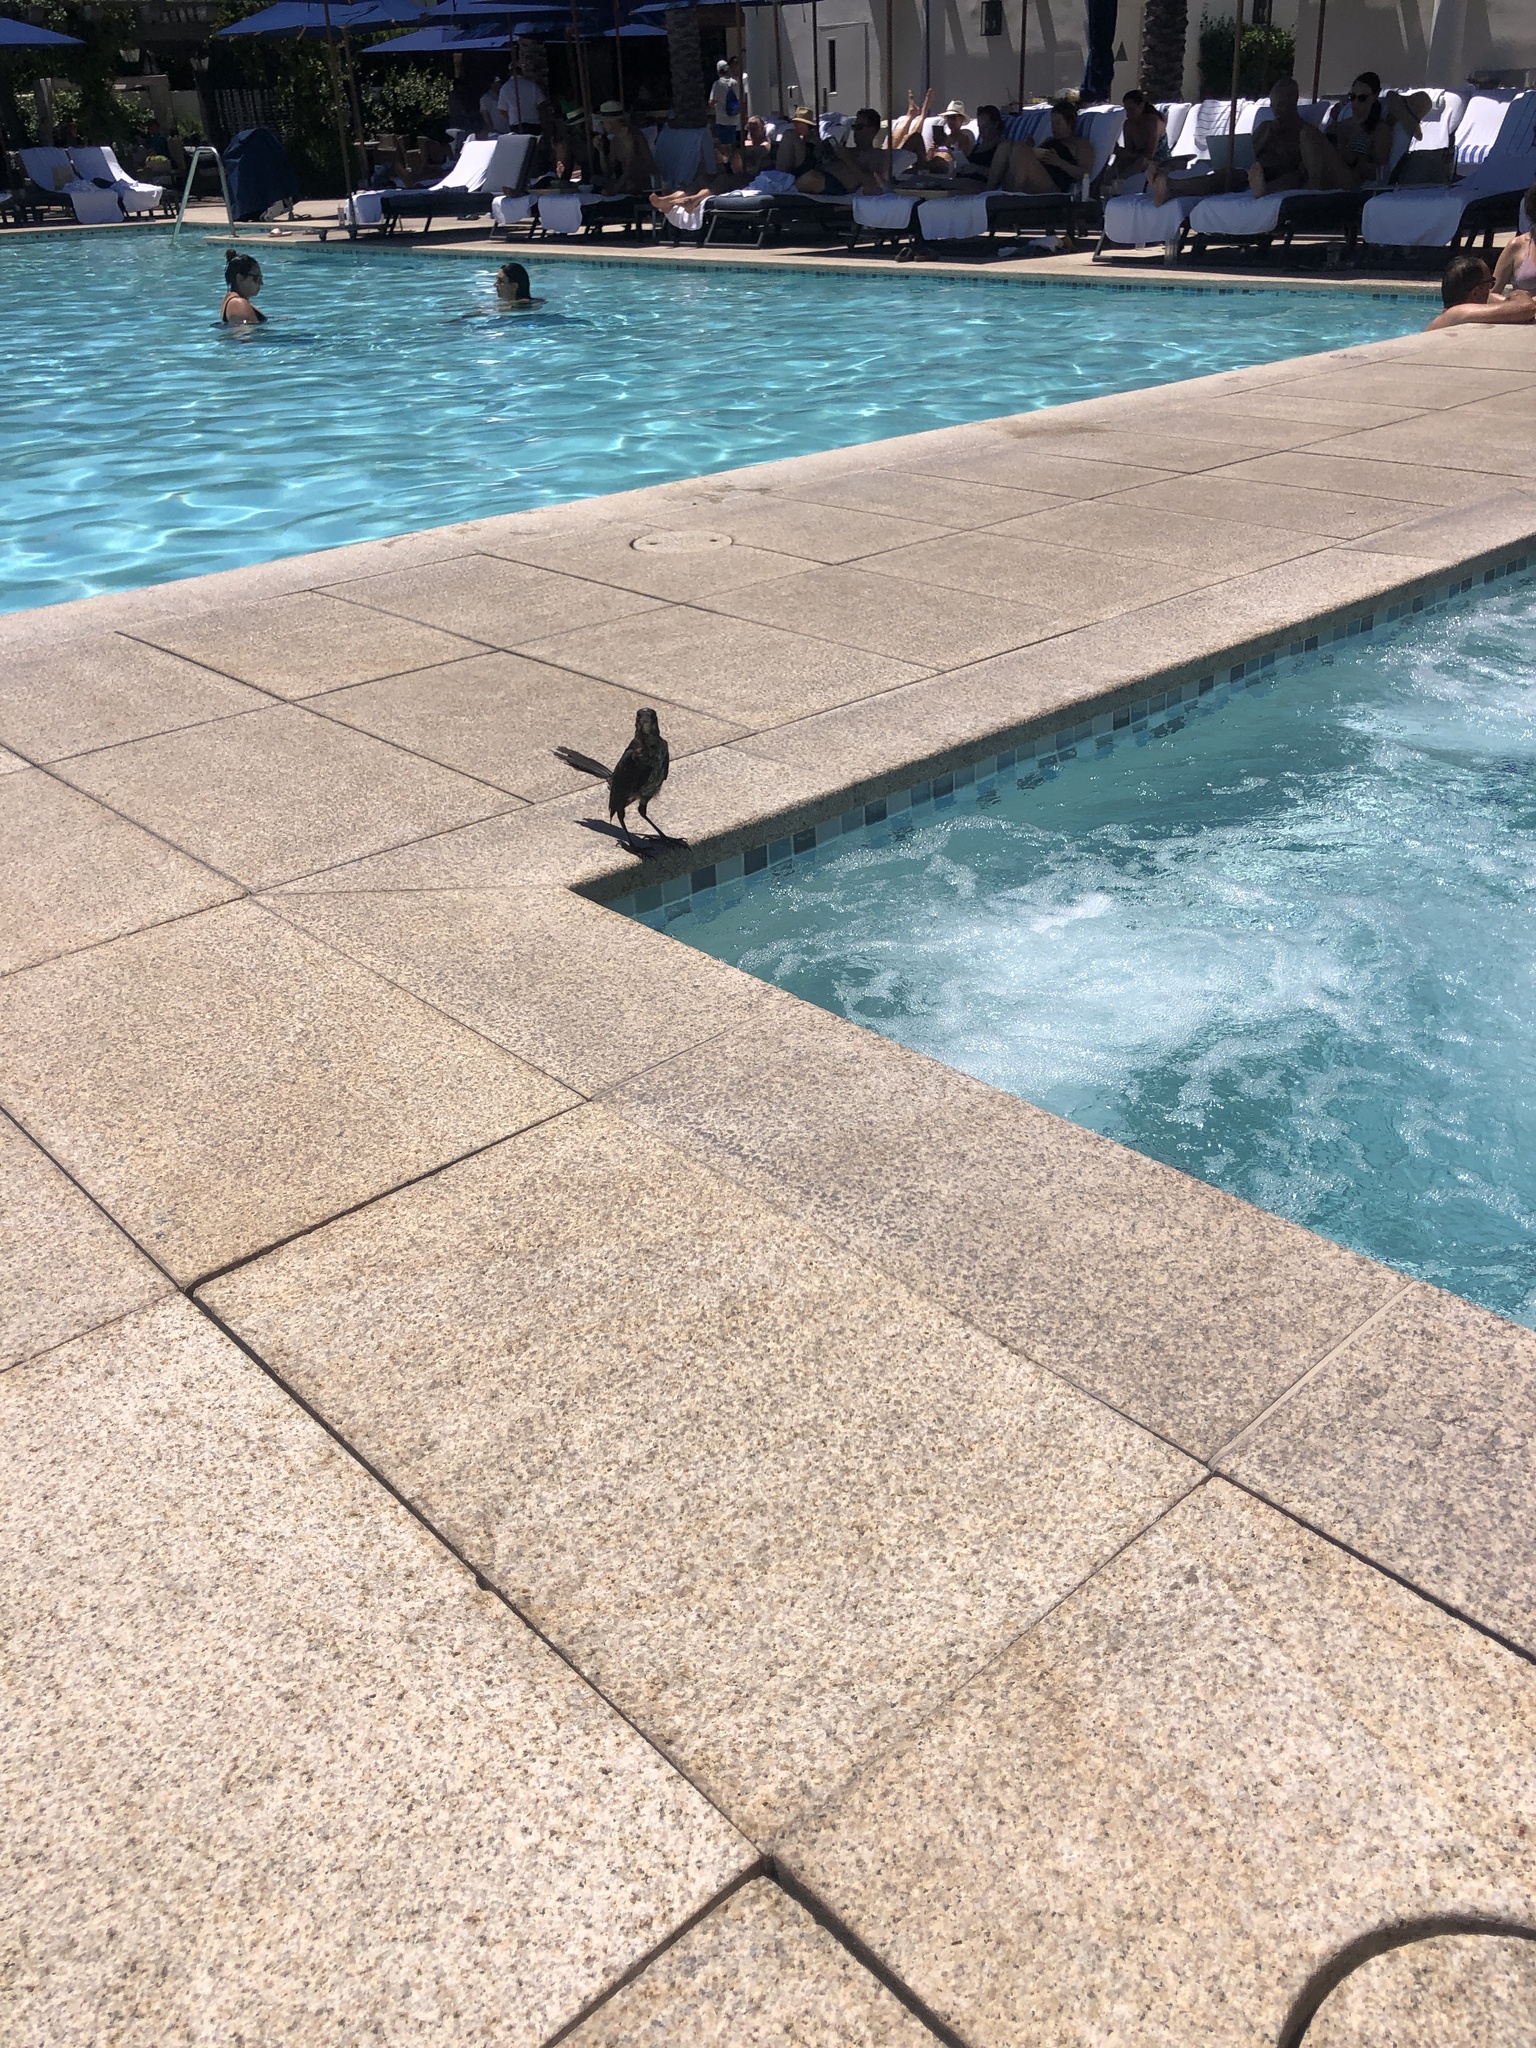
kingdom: Animalia
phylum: Chordata
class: Aves
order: Passeriformes
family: Icteridae
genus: Quiscalus
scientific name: Quiscalus mexicanus
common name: Great-tailed grackle
